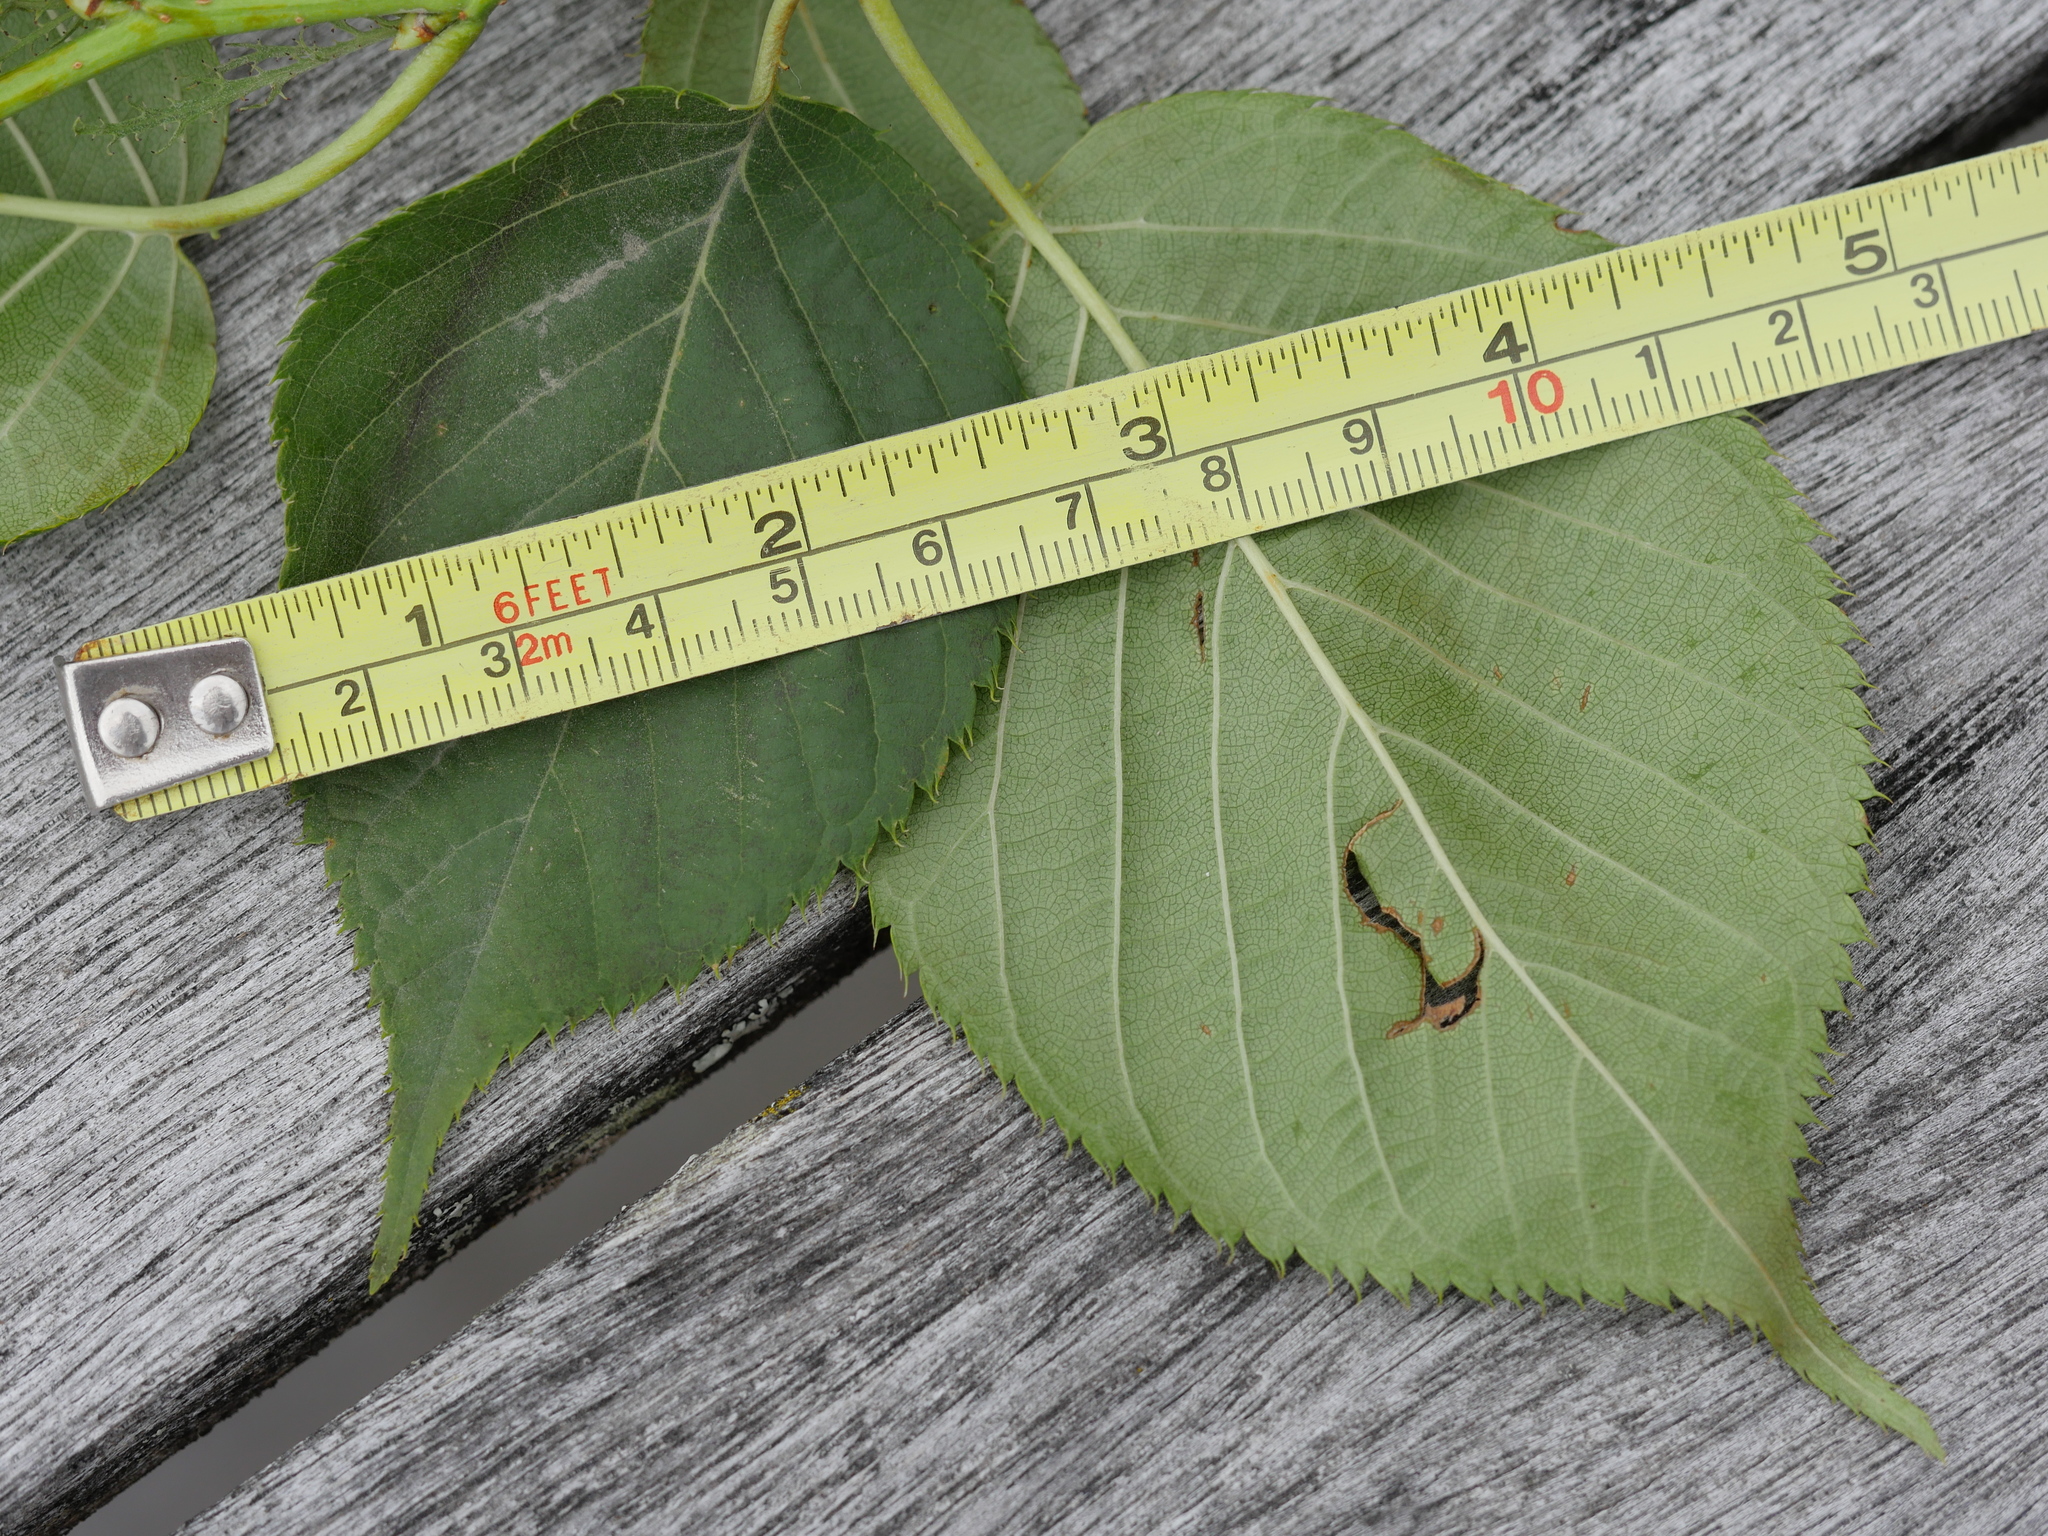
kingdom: Plantae
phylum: Tracheophyta
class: Magnoliopsida
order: Rosales
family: Rosaceae
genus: Prunus
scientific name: Prunus serrulata
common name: Japanese cherry
